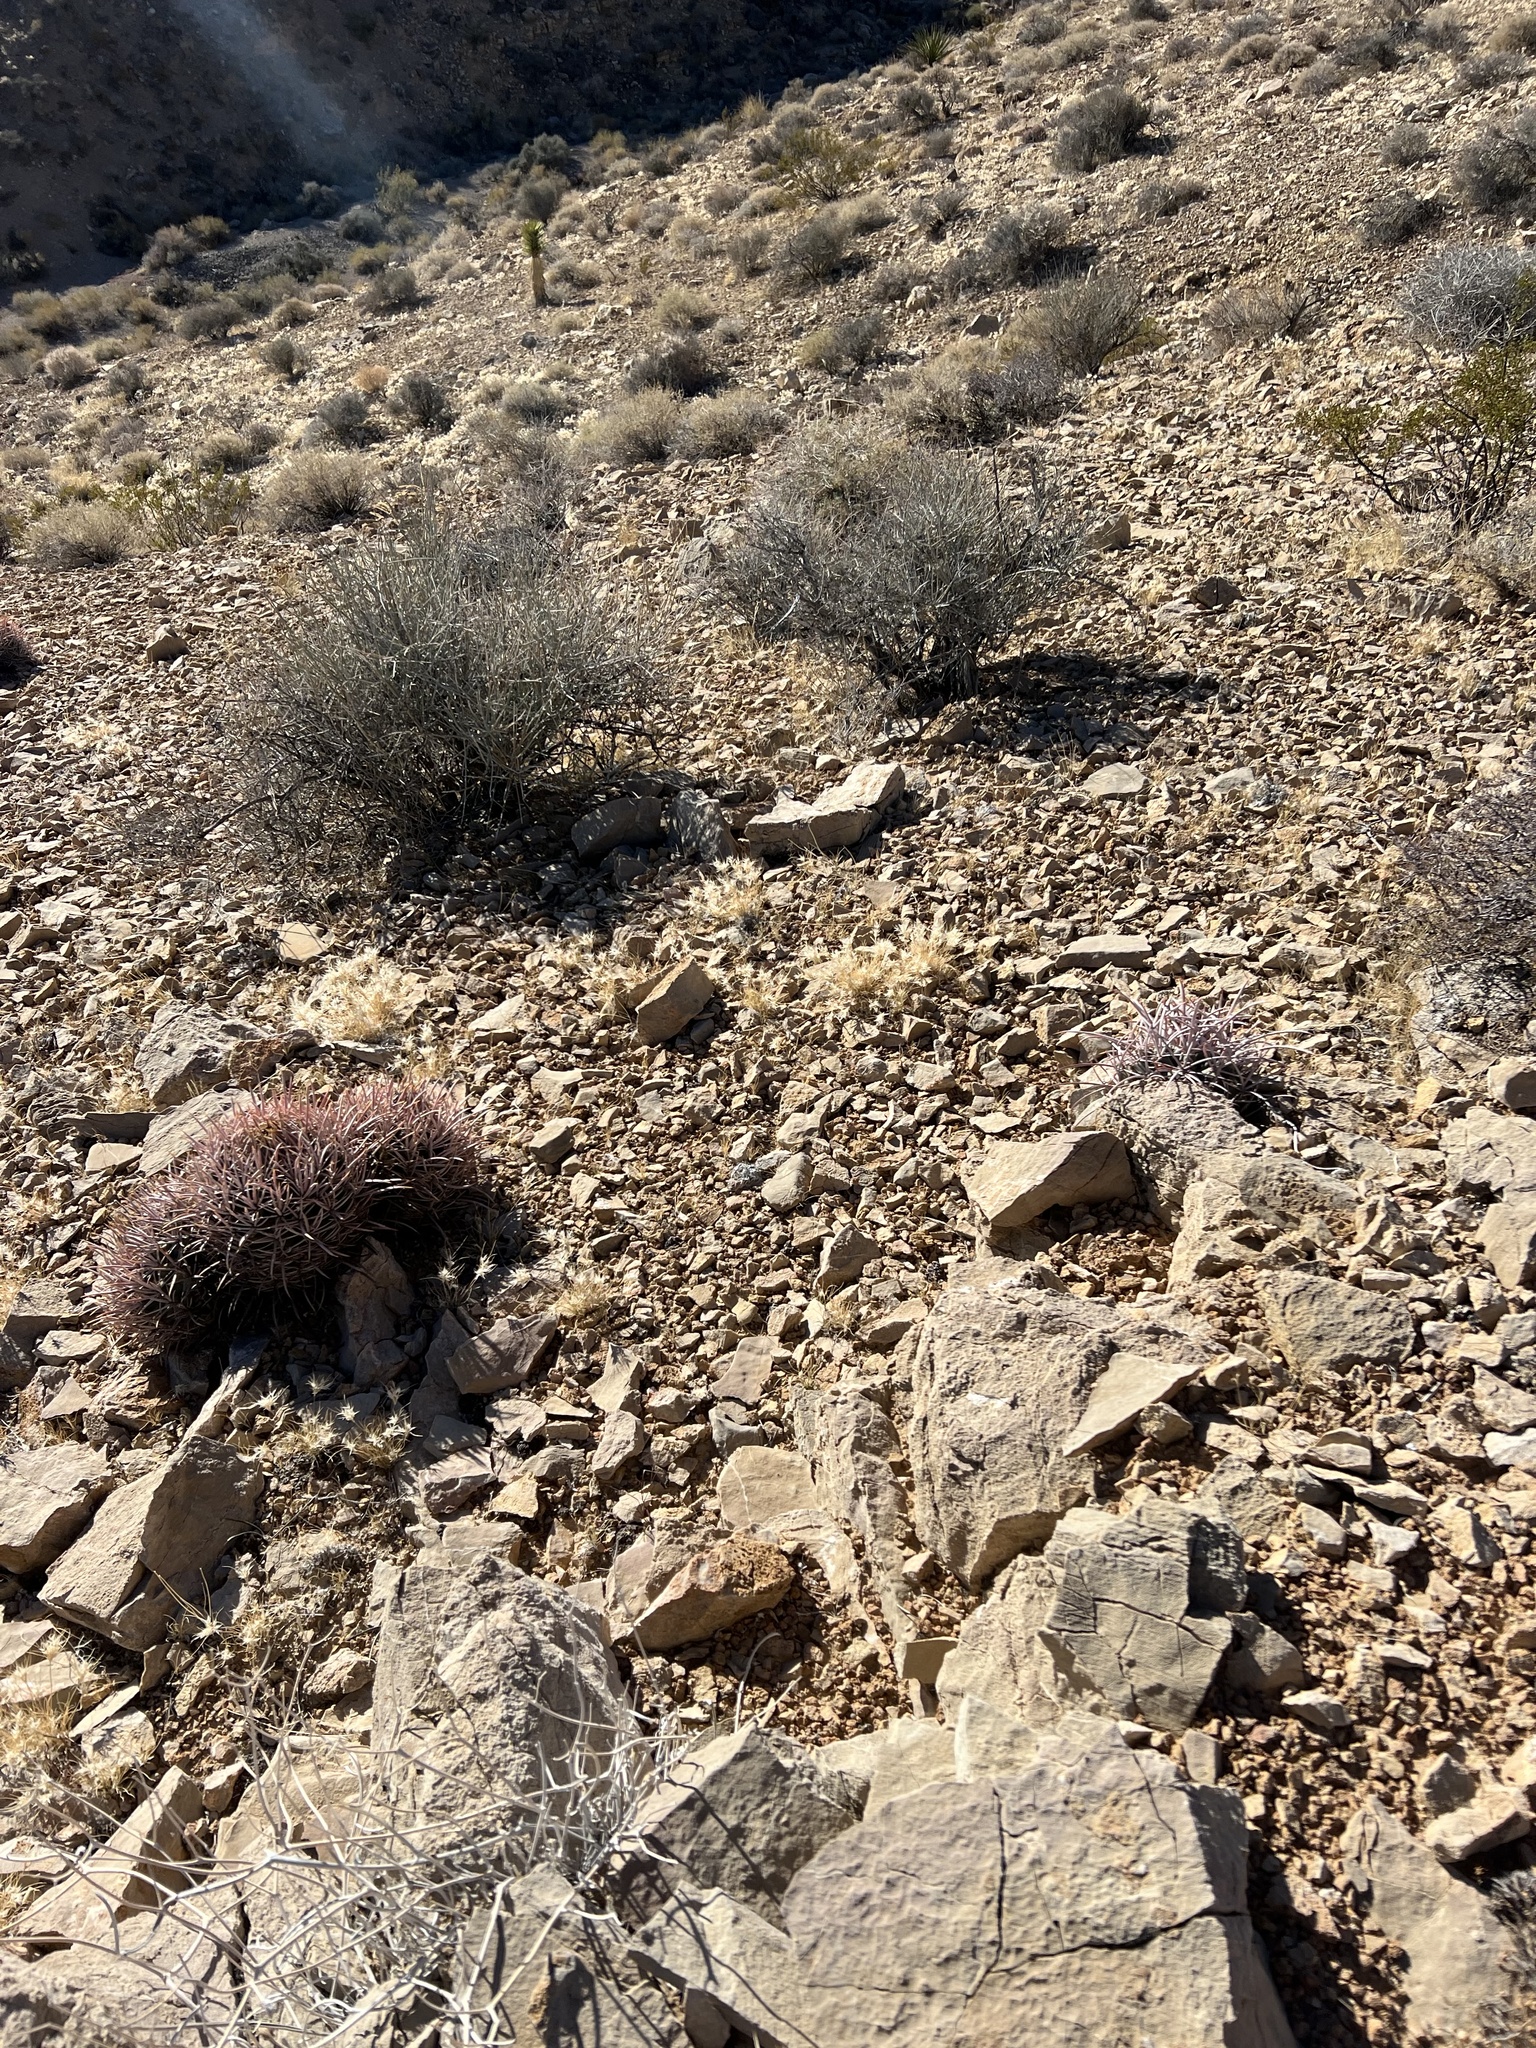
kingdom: Plantae
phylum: Tracheophyta
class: Magnoliopsida
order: Caryophyllales
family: Cactaceae
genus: Echinocactus
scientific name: Echinocactus polycephalus
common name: Cottontop cactus
